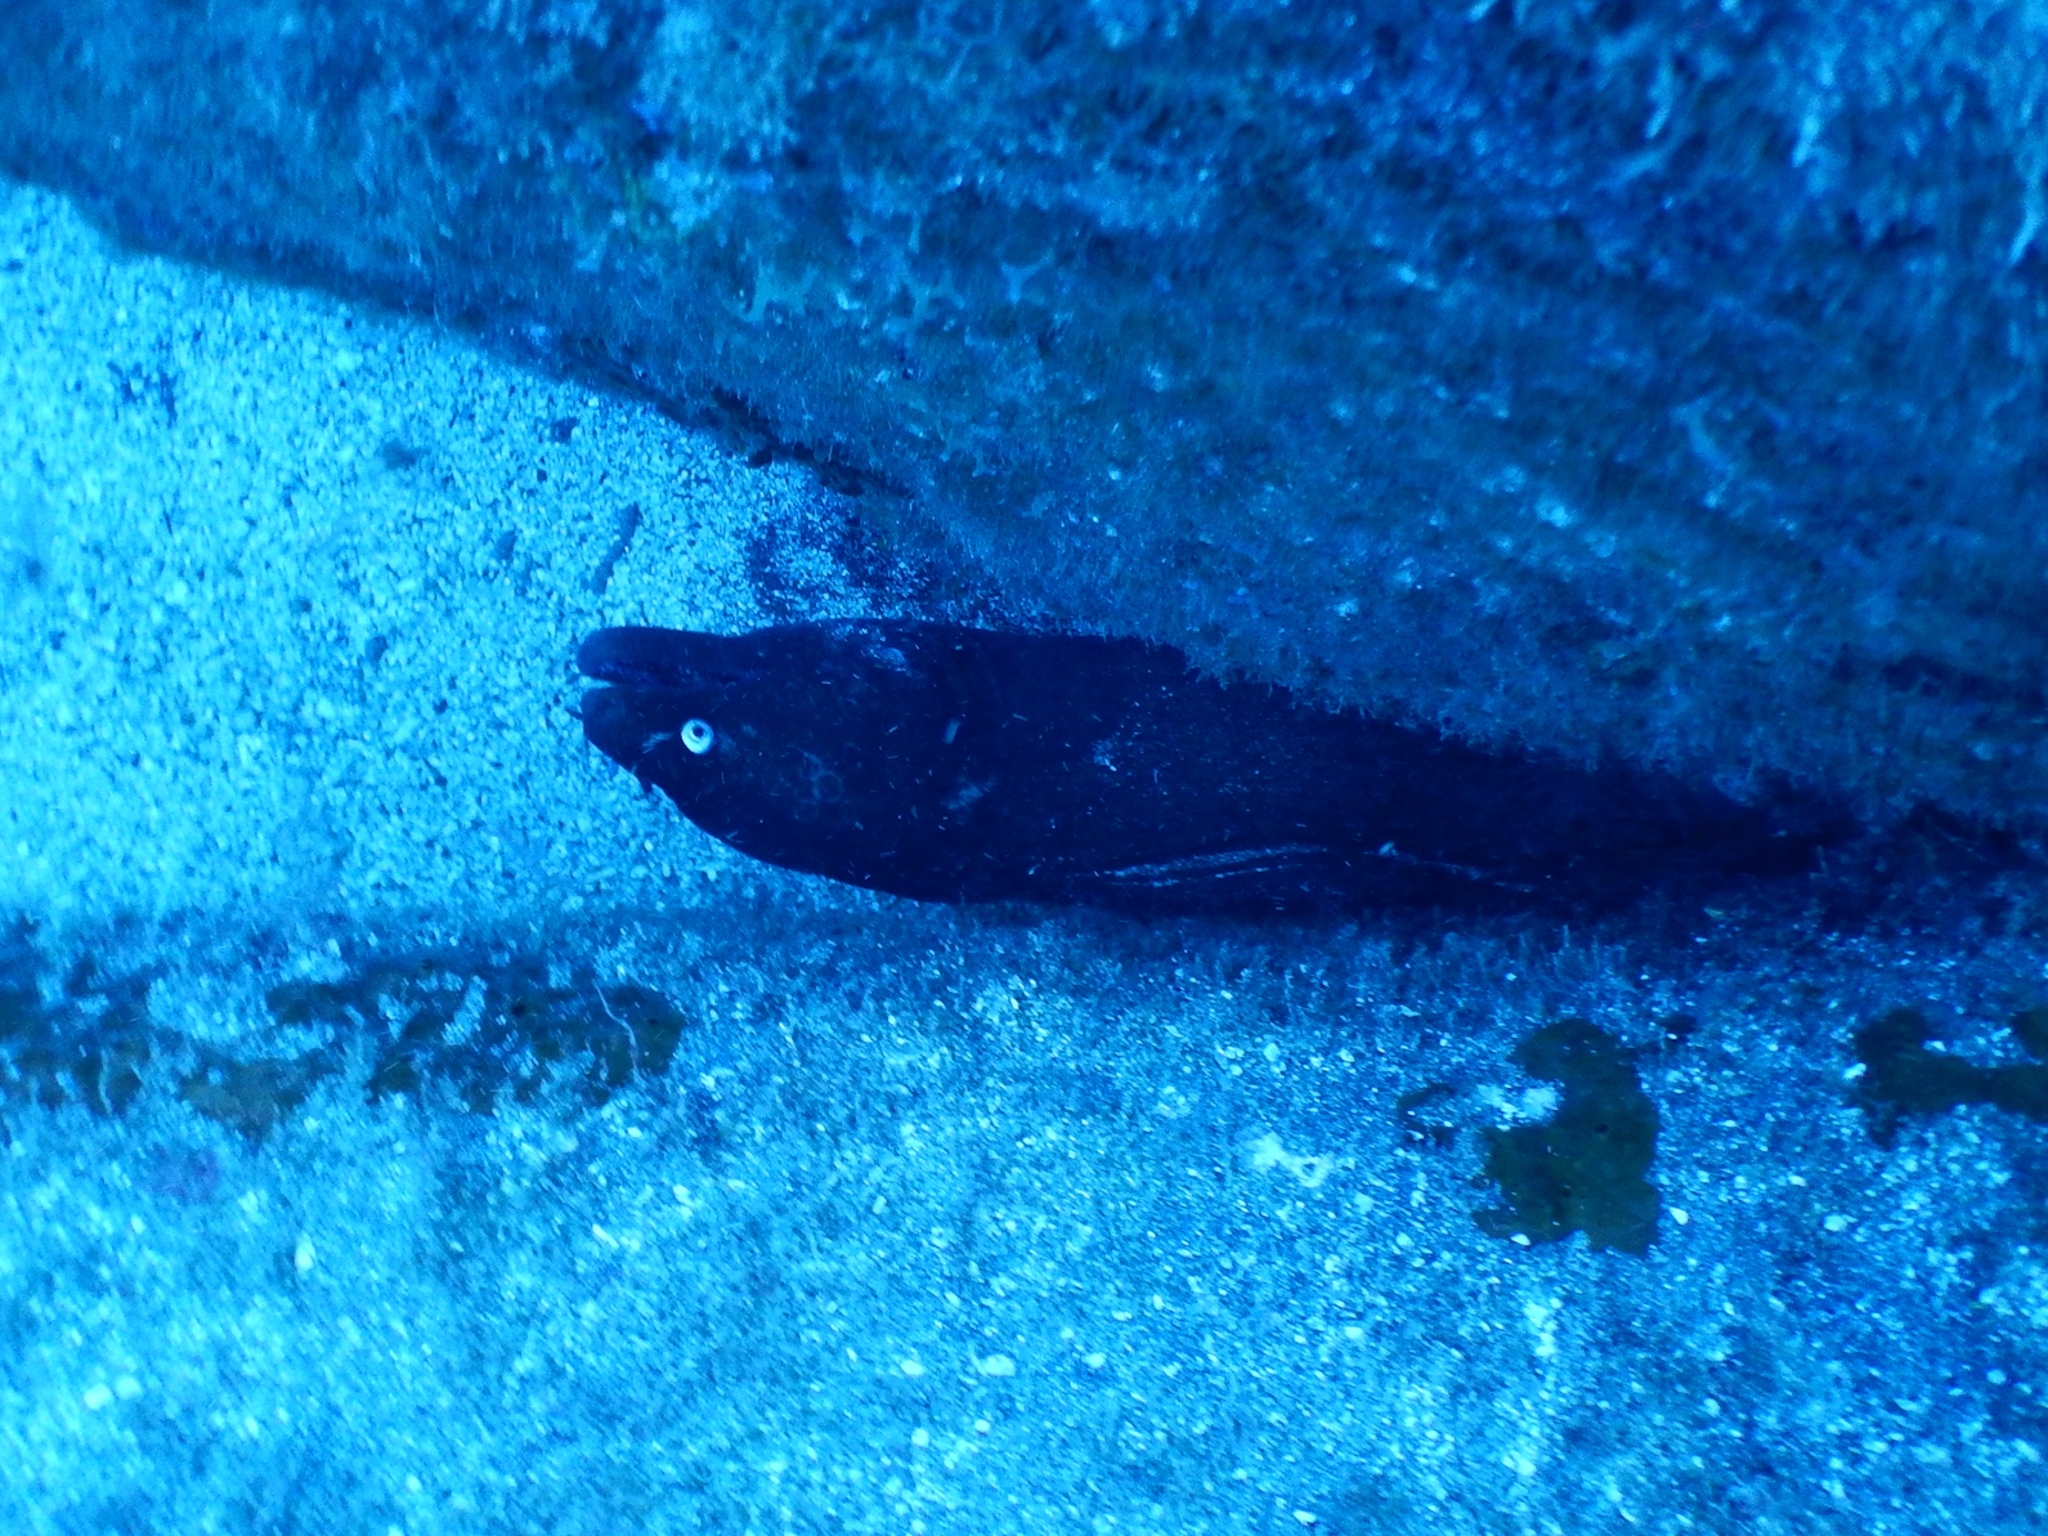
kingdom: Animalia
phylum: Chordata
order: Anguilliformes
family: Muraenidae
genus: Muraena
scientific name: Muraena augusti
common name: Mediterranean moray
